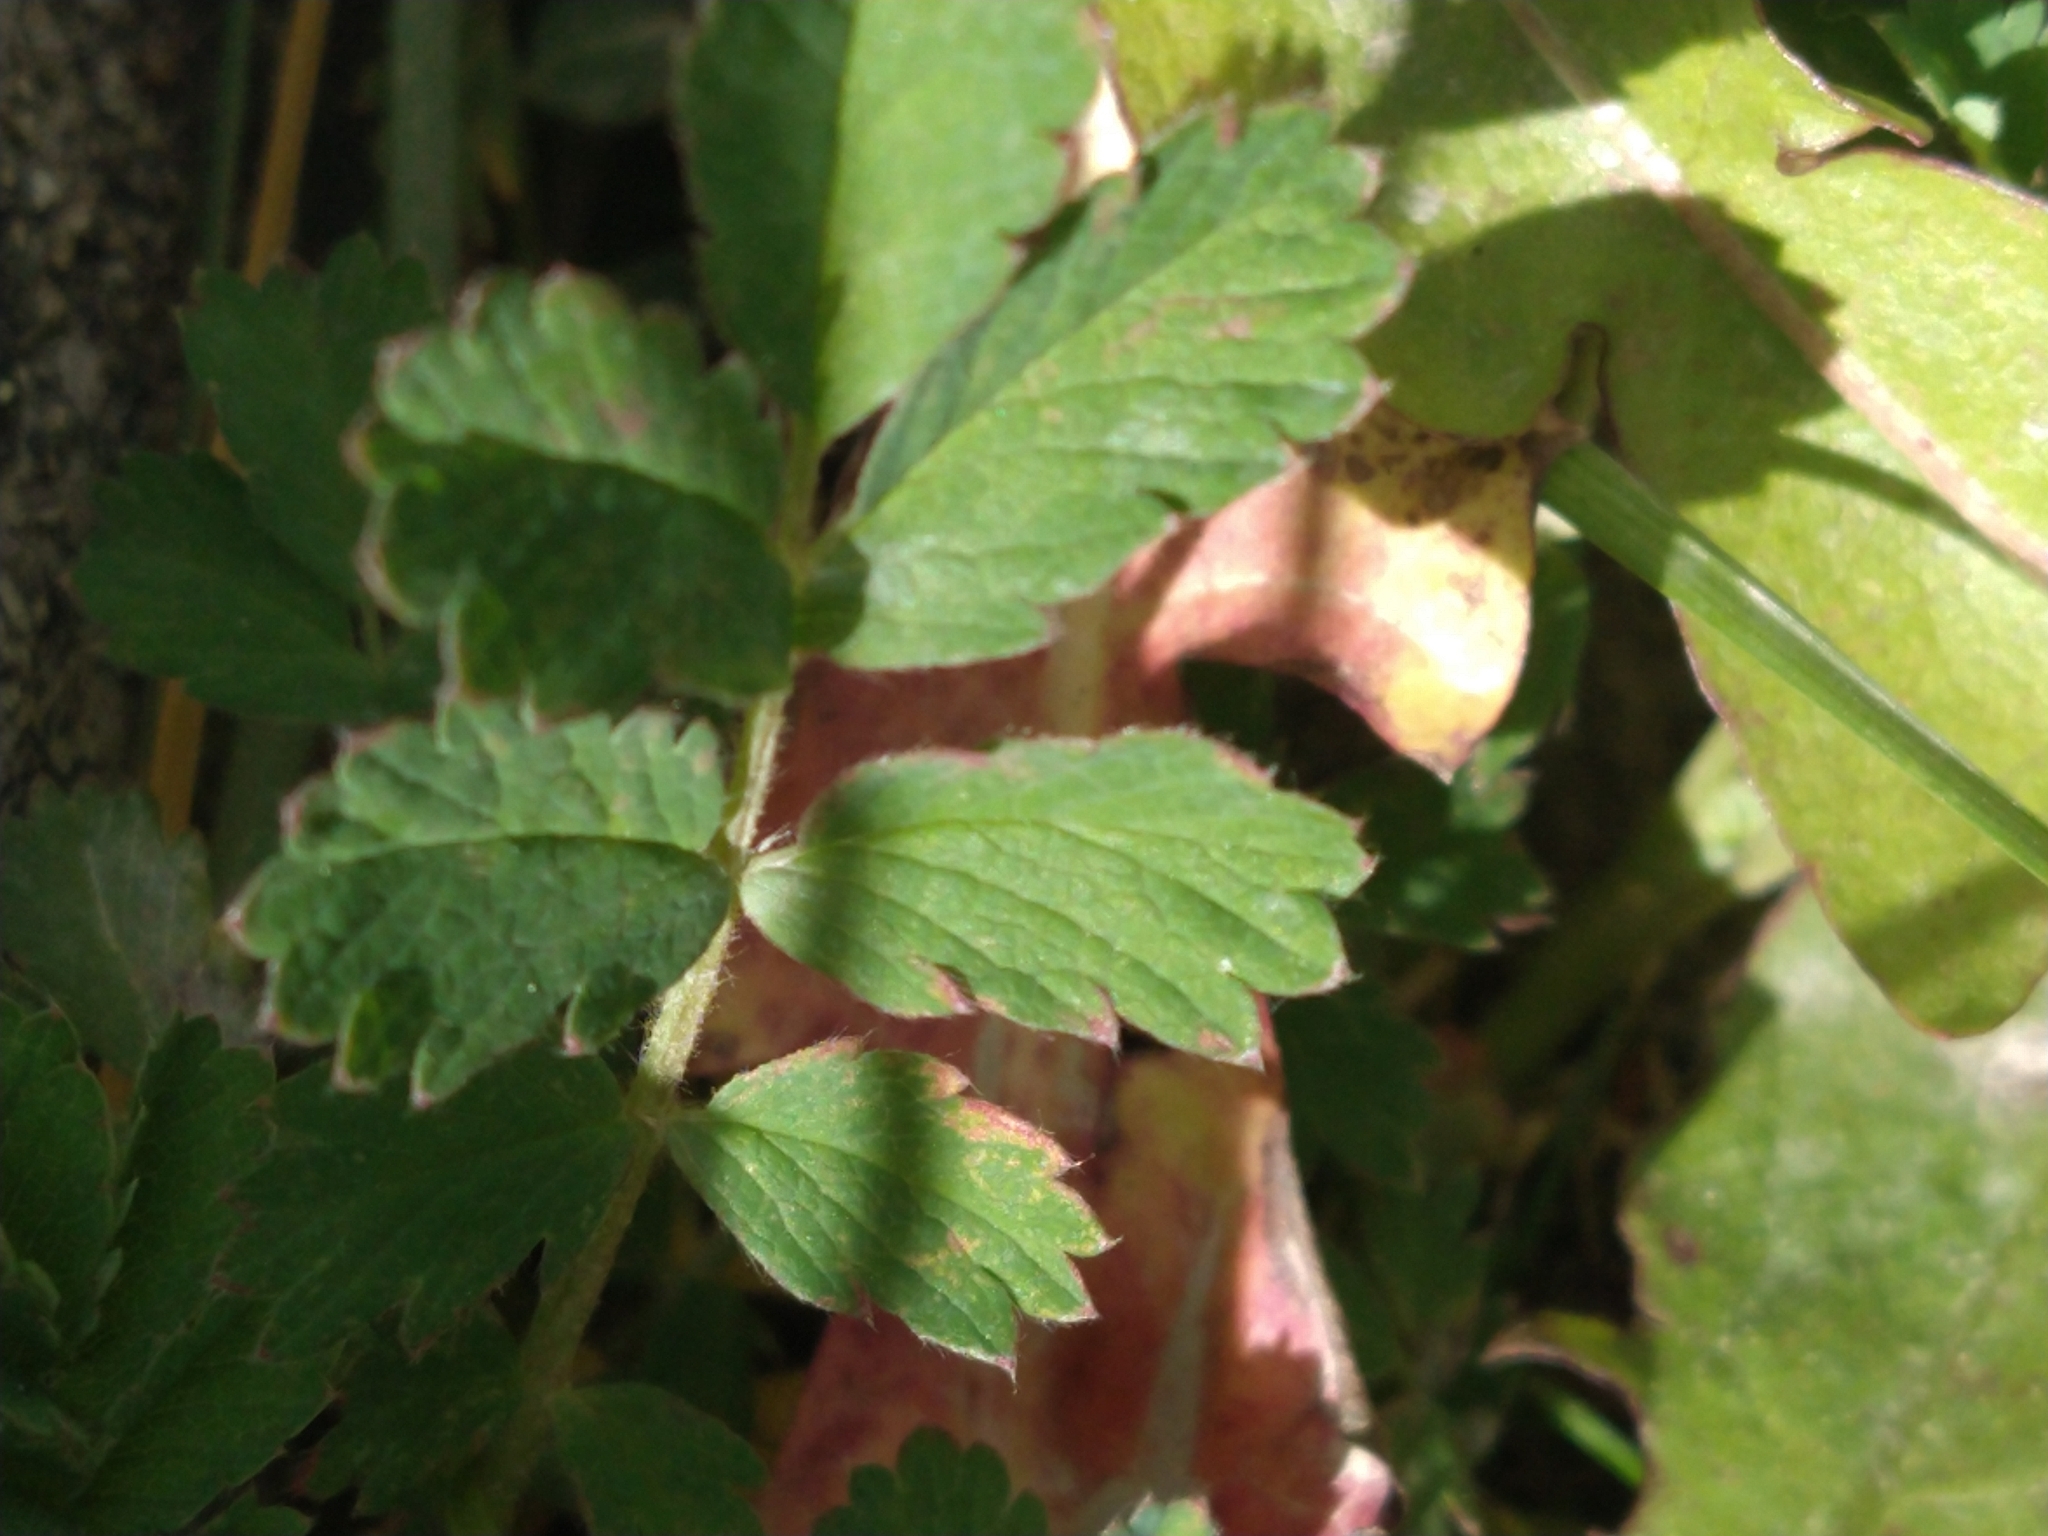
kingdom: Plantae
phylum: Tracheophyta
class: Magnoliopsida
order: Rosales
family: Rosaceae
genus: Acaena
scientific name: Acaena magellanica
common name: New zealand burr
